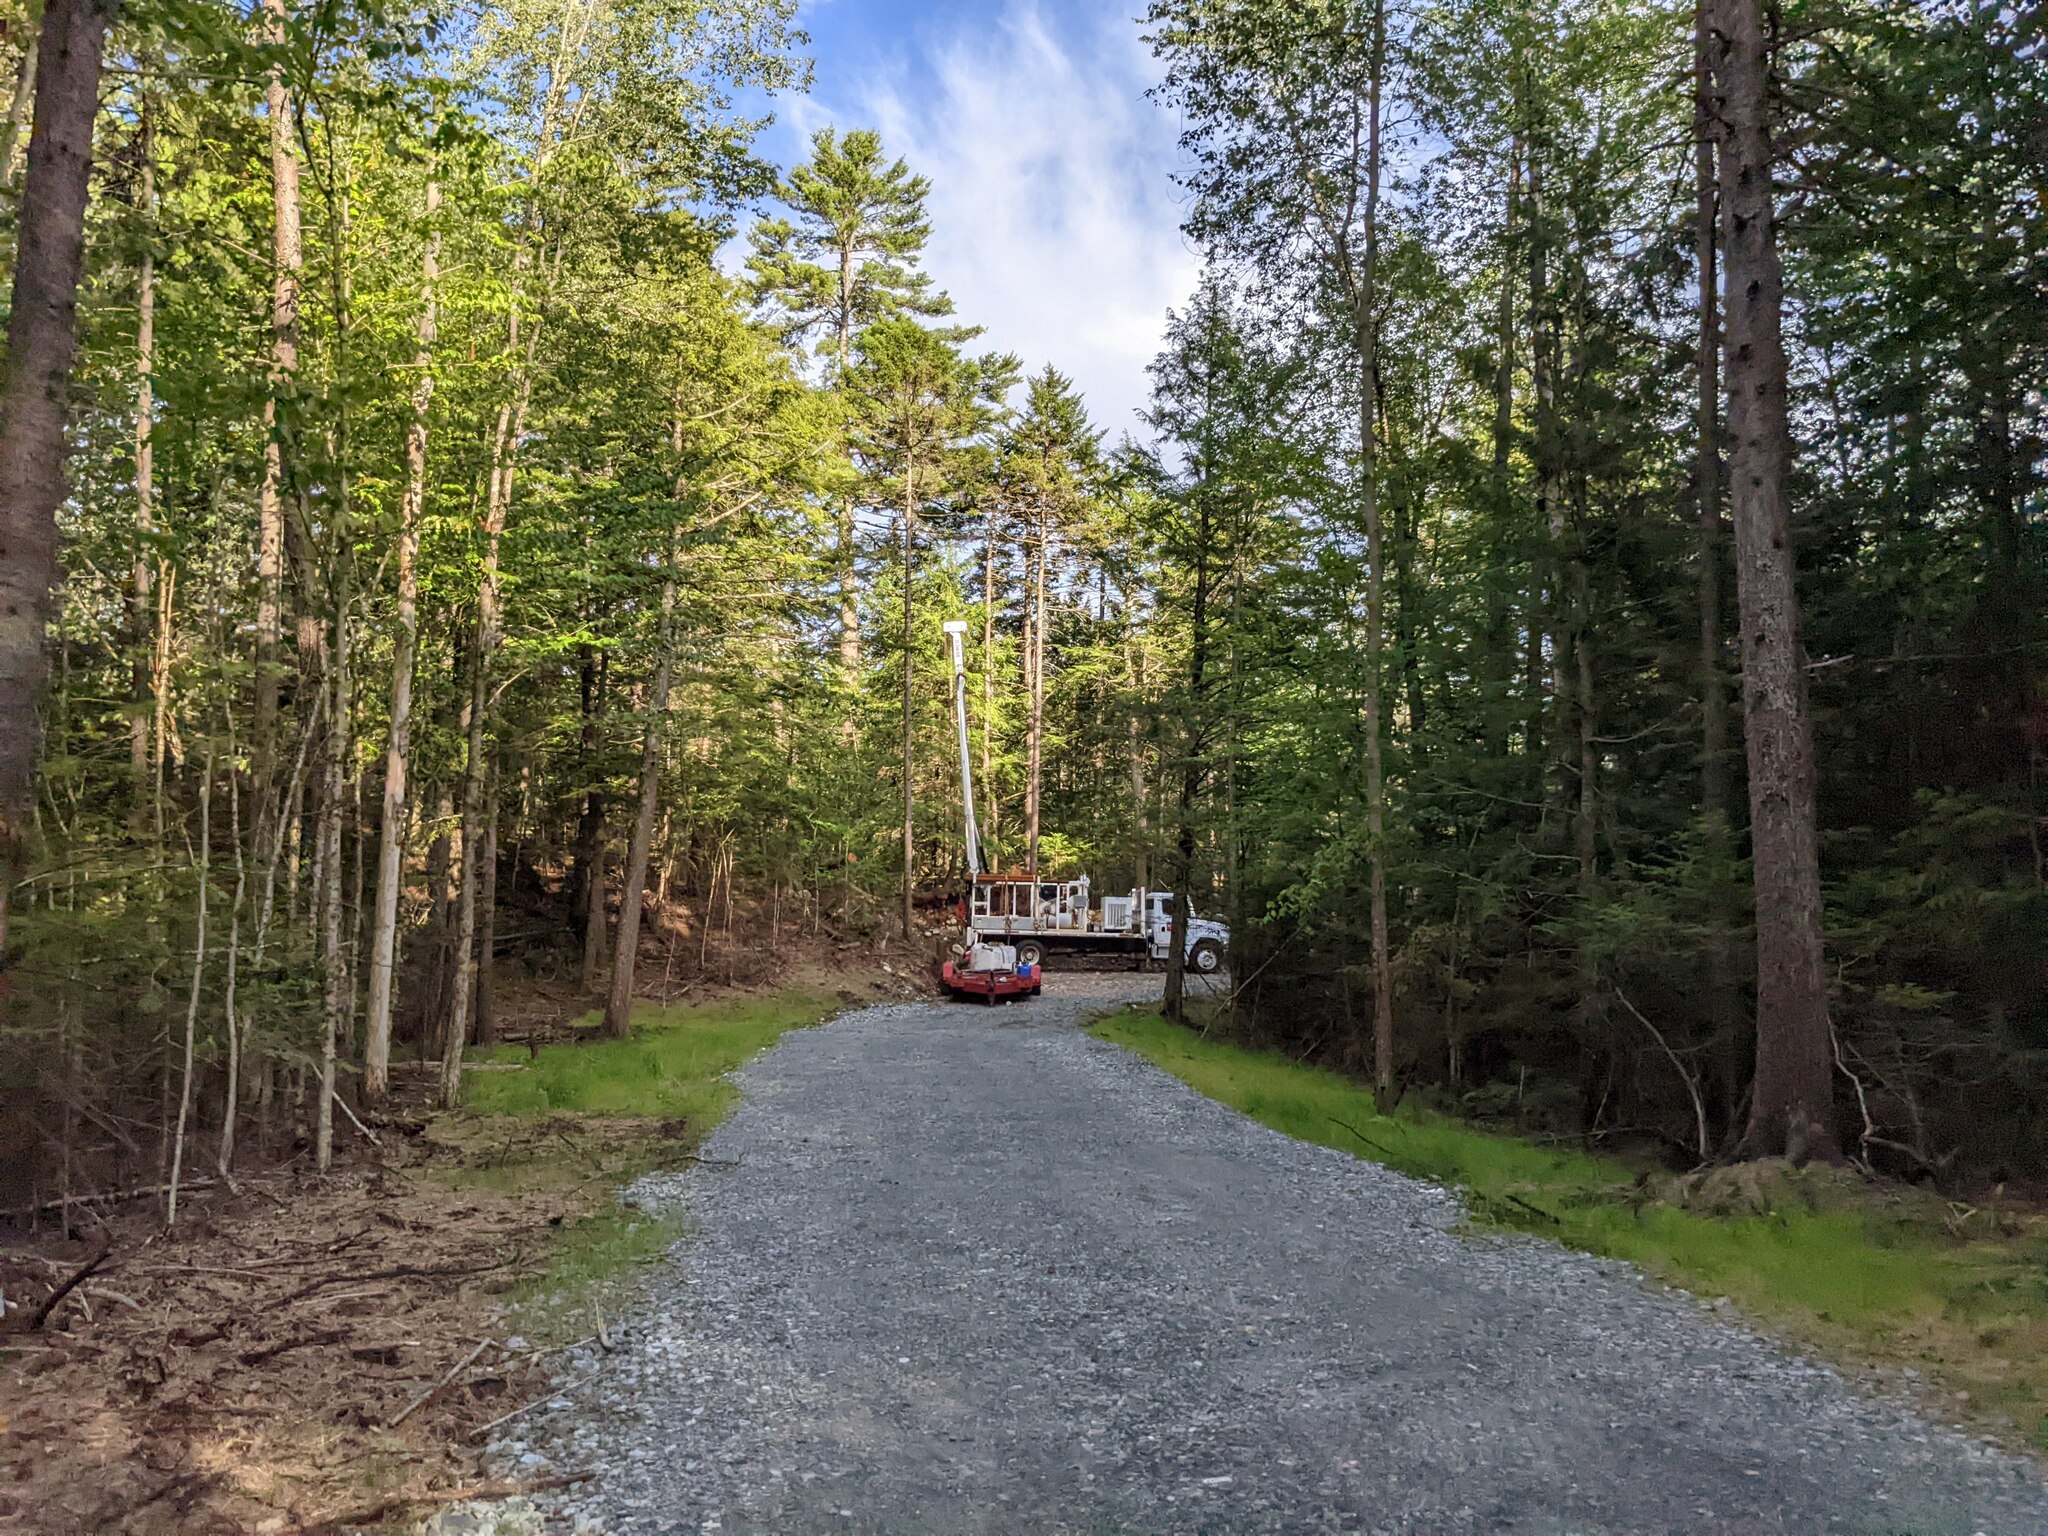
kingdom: Plantae
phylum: Tracheophyta
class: Pinopsida
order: Pinales
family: Pinaceae
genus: Pinus
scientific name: Pinus strobus
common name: Weymouth pine
